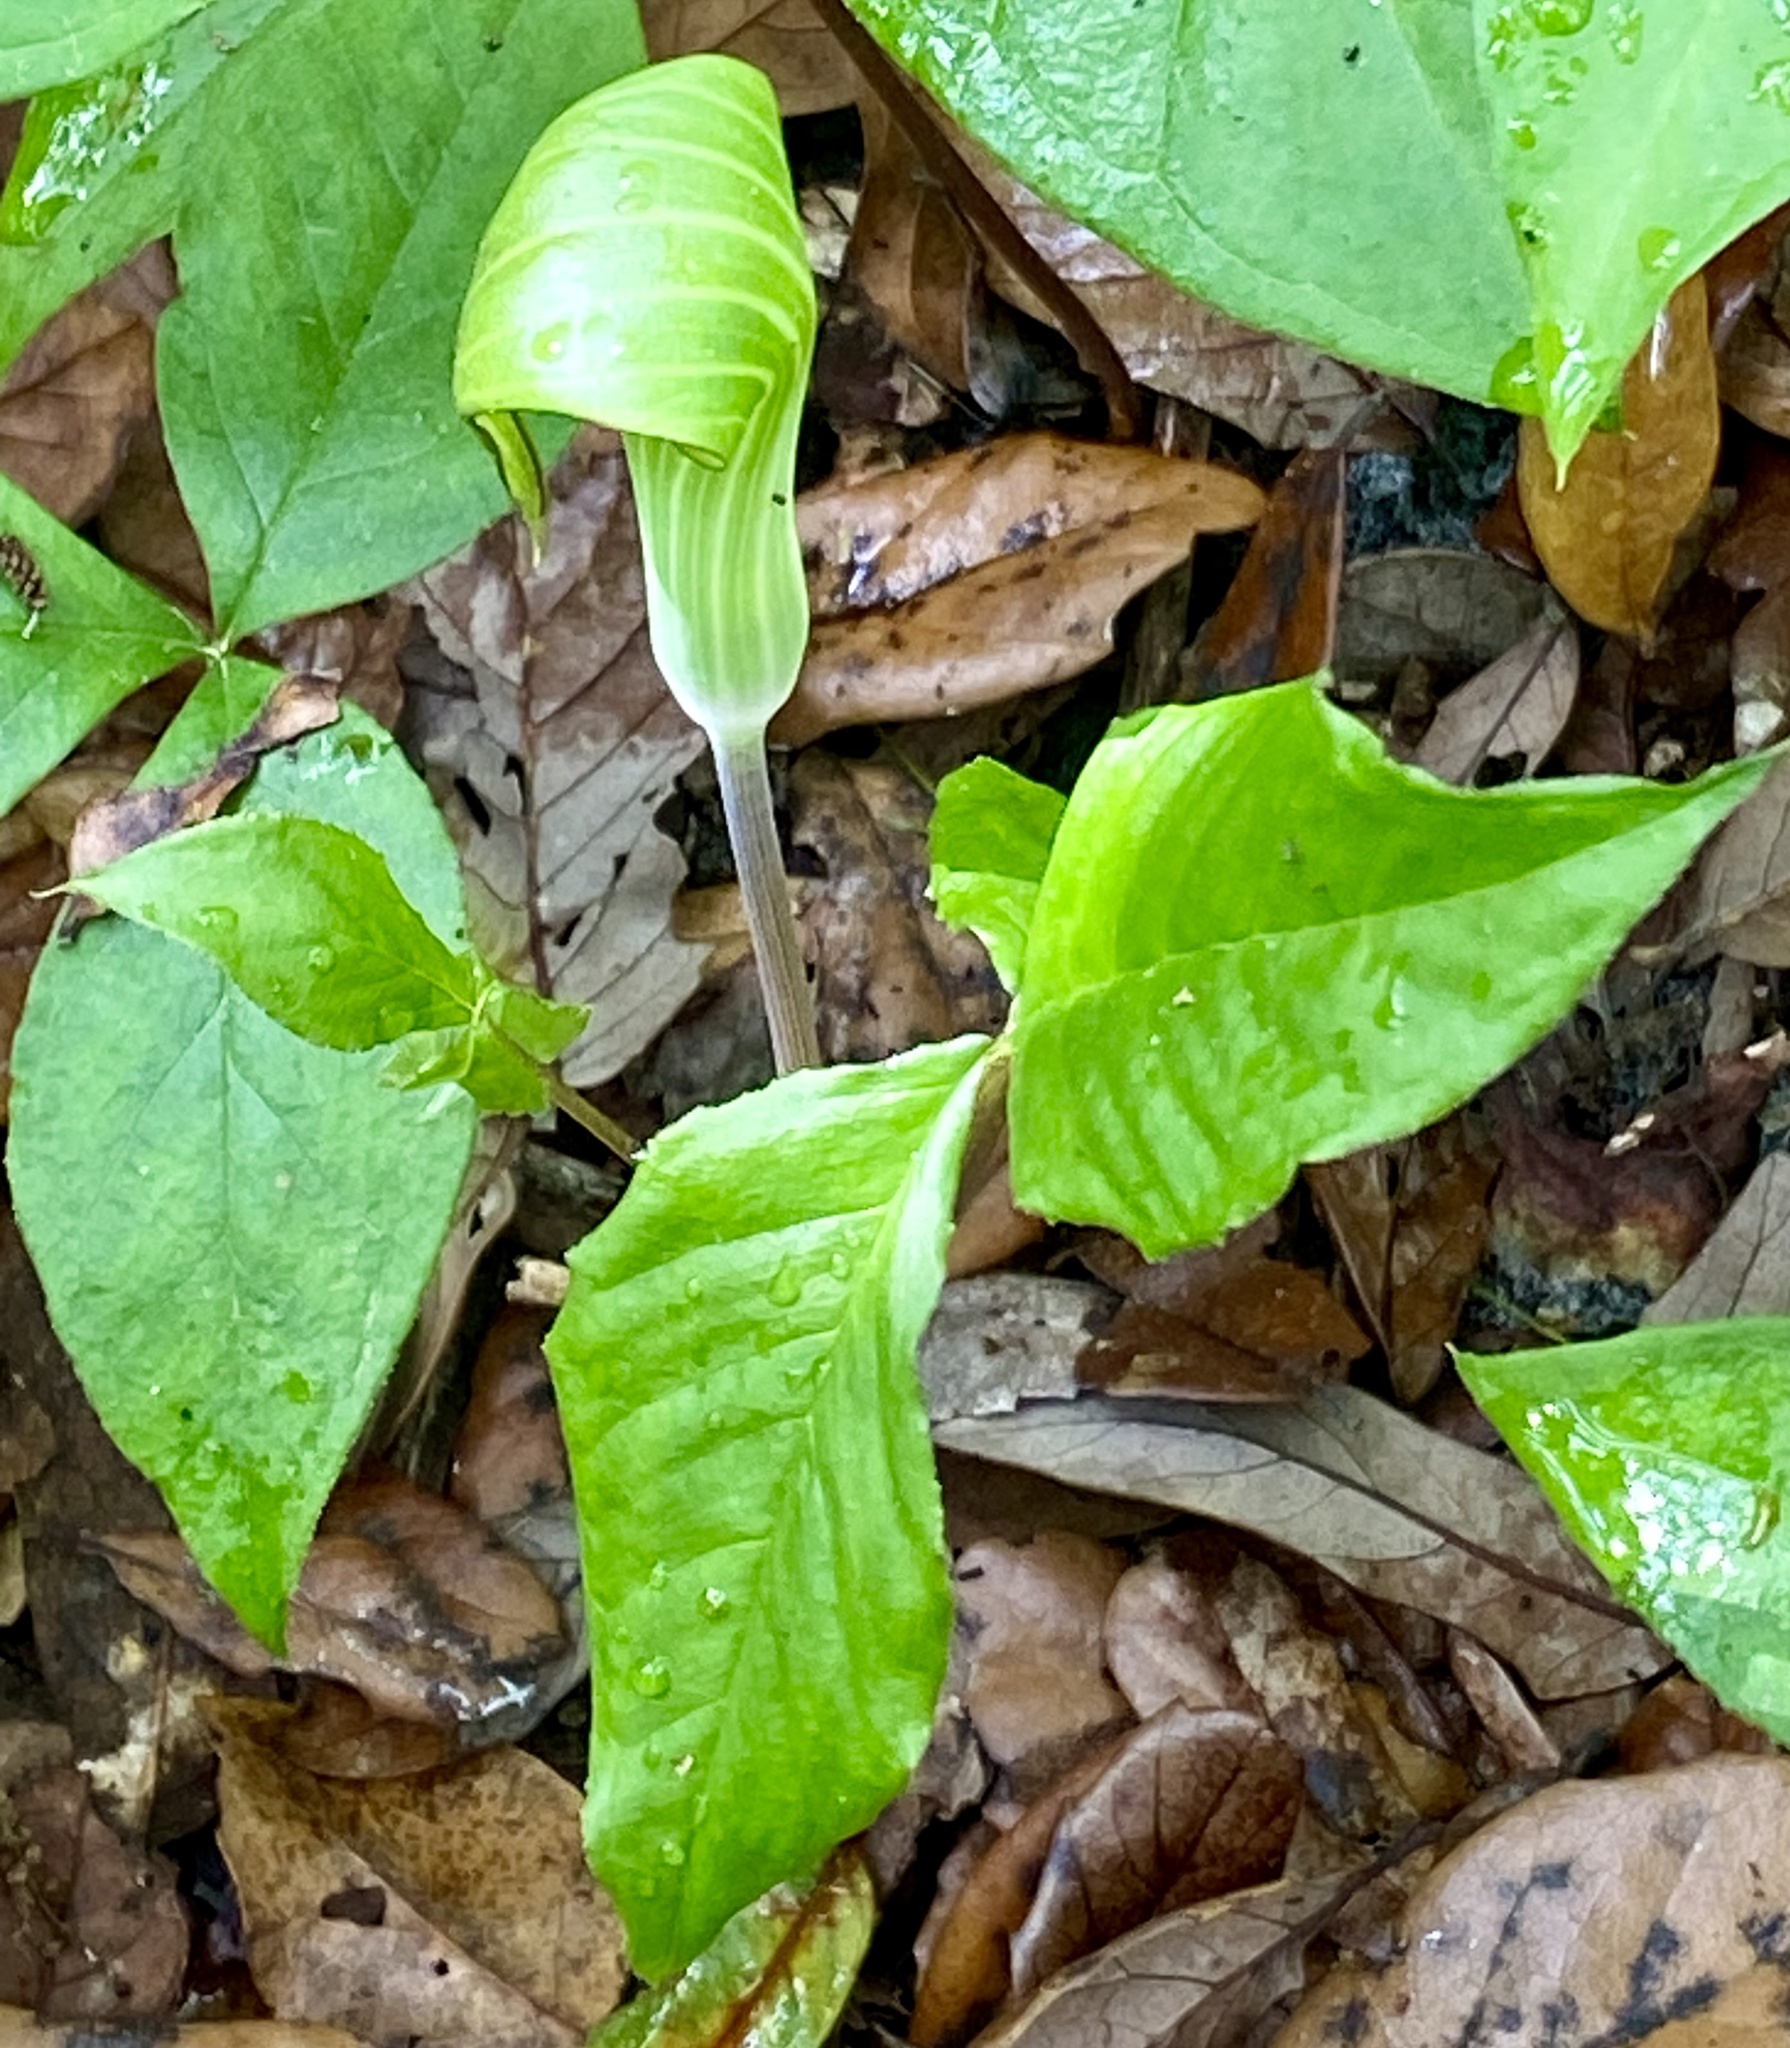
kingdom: Plantae
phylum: Tracheophyta
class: Liliopsida
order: Alismatales
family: Araceae
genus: Arisaema
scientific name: Arisaema acuminatum
